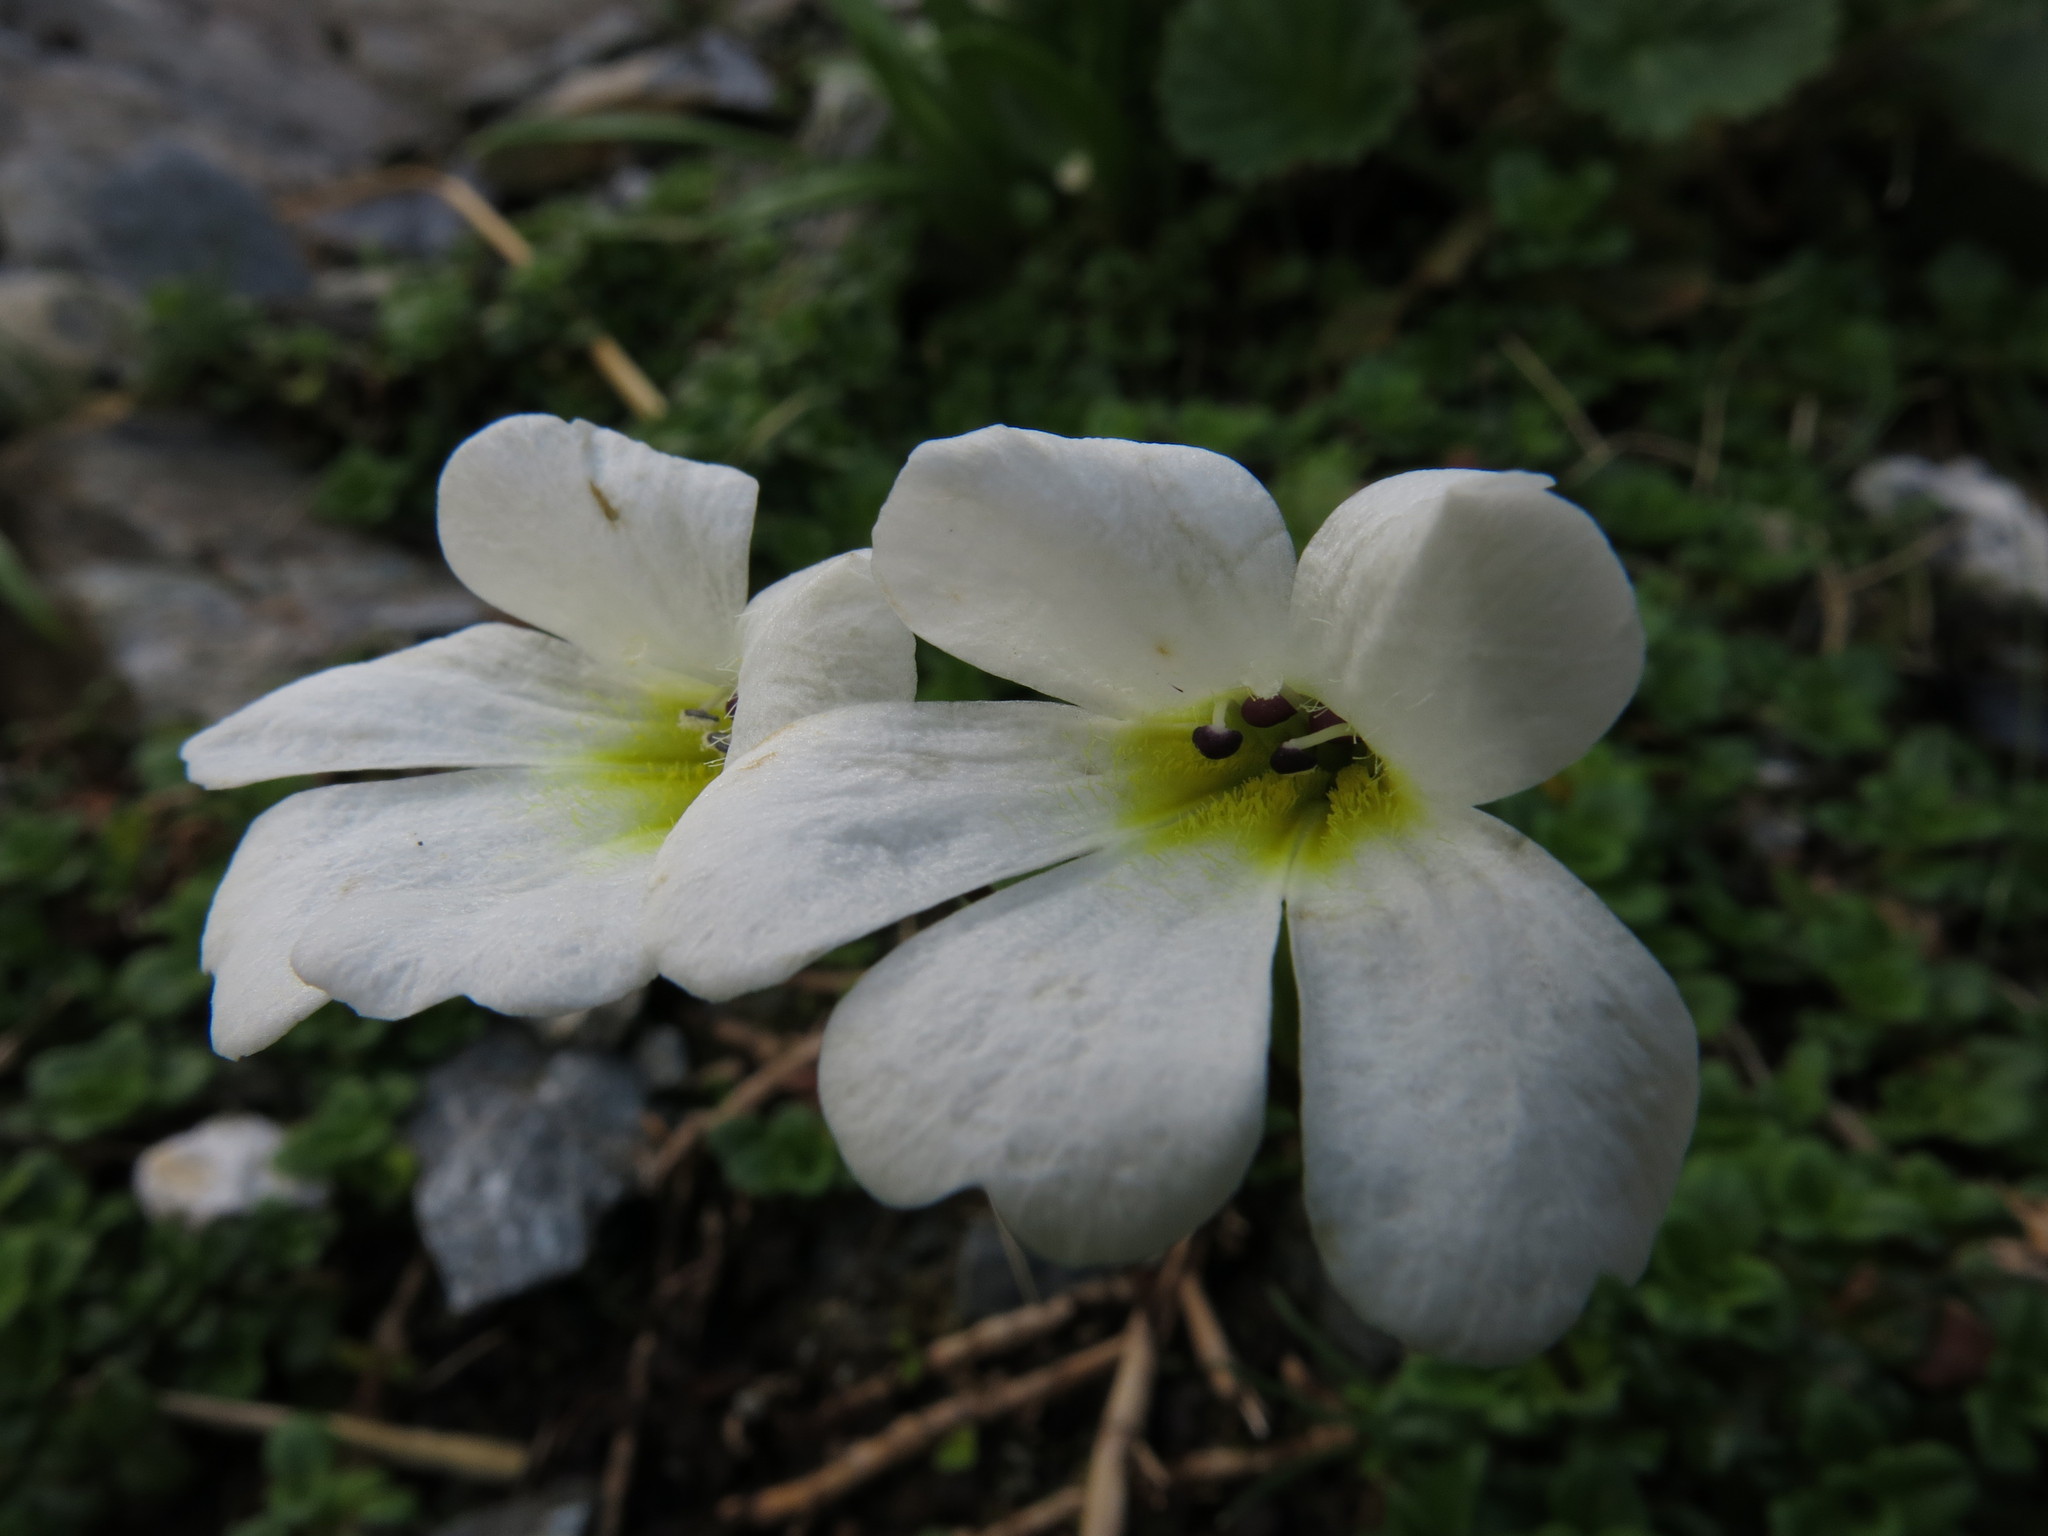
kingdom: Plantae
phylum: Tracheophyta
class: Magnoliopsida
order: Lamiales
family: Plantaginaceae
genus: Ourisia
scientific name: Ourisia caespitosa
